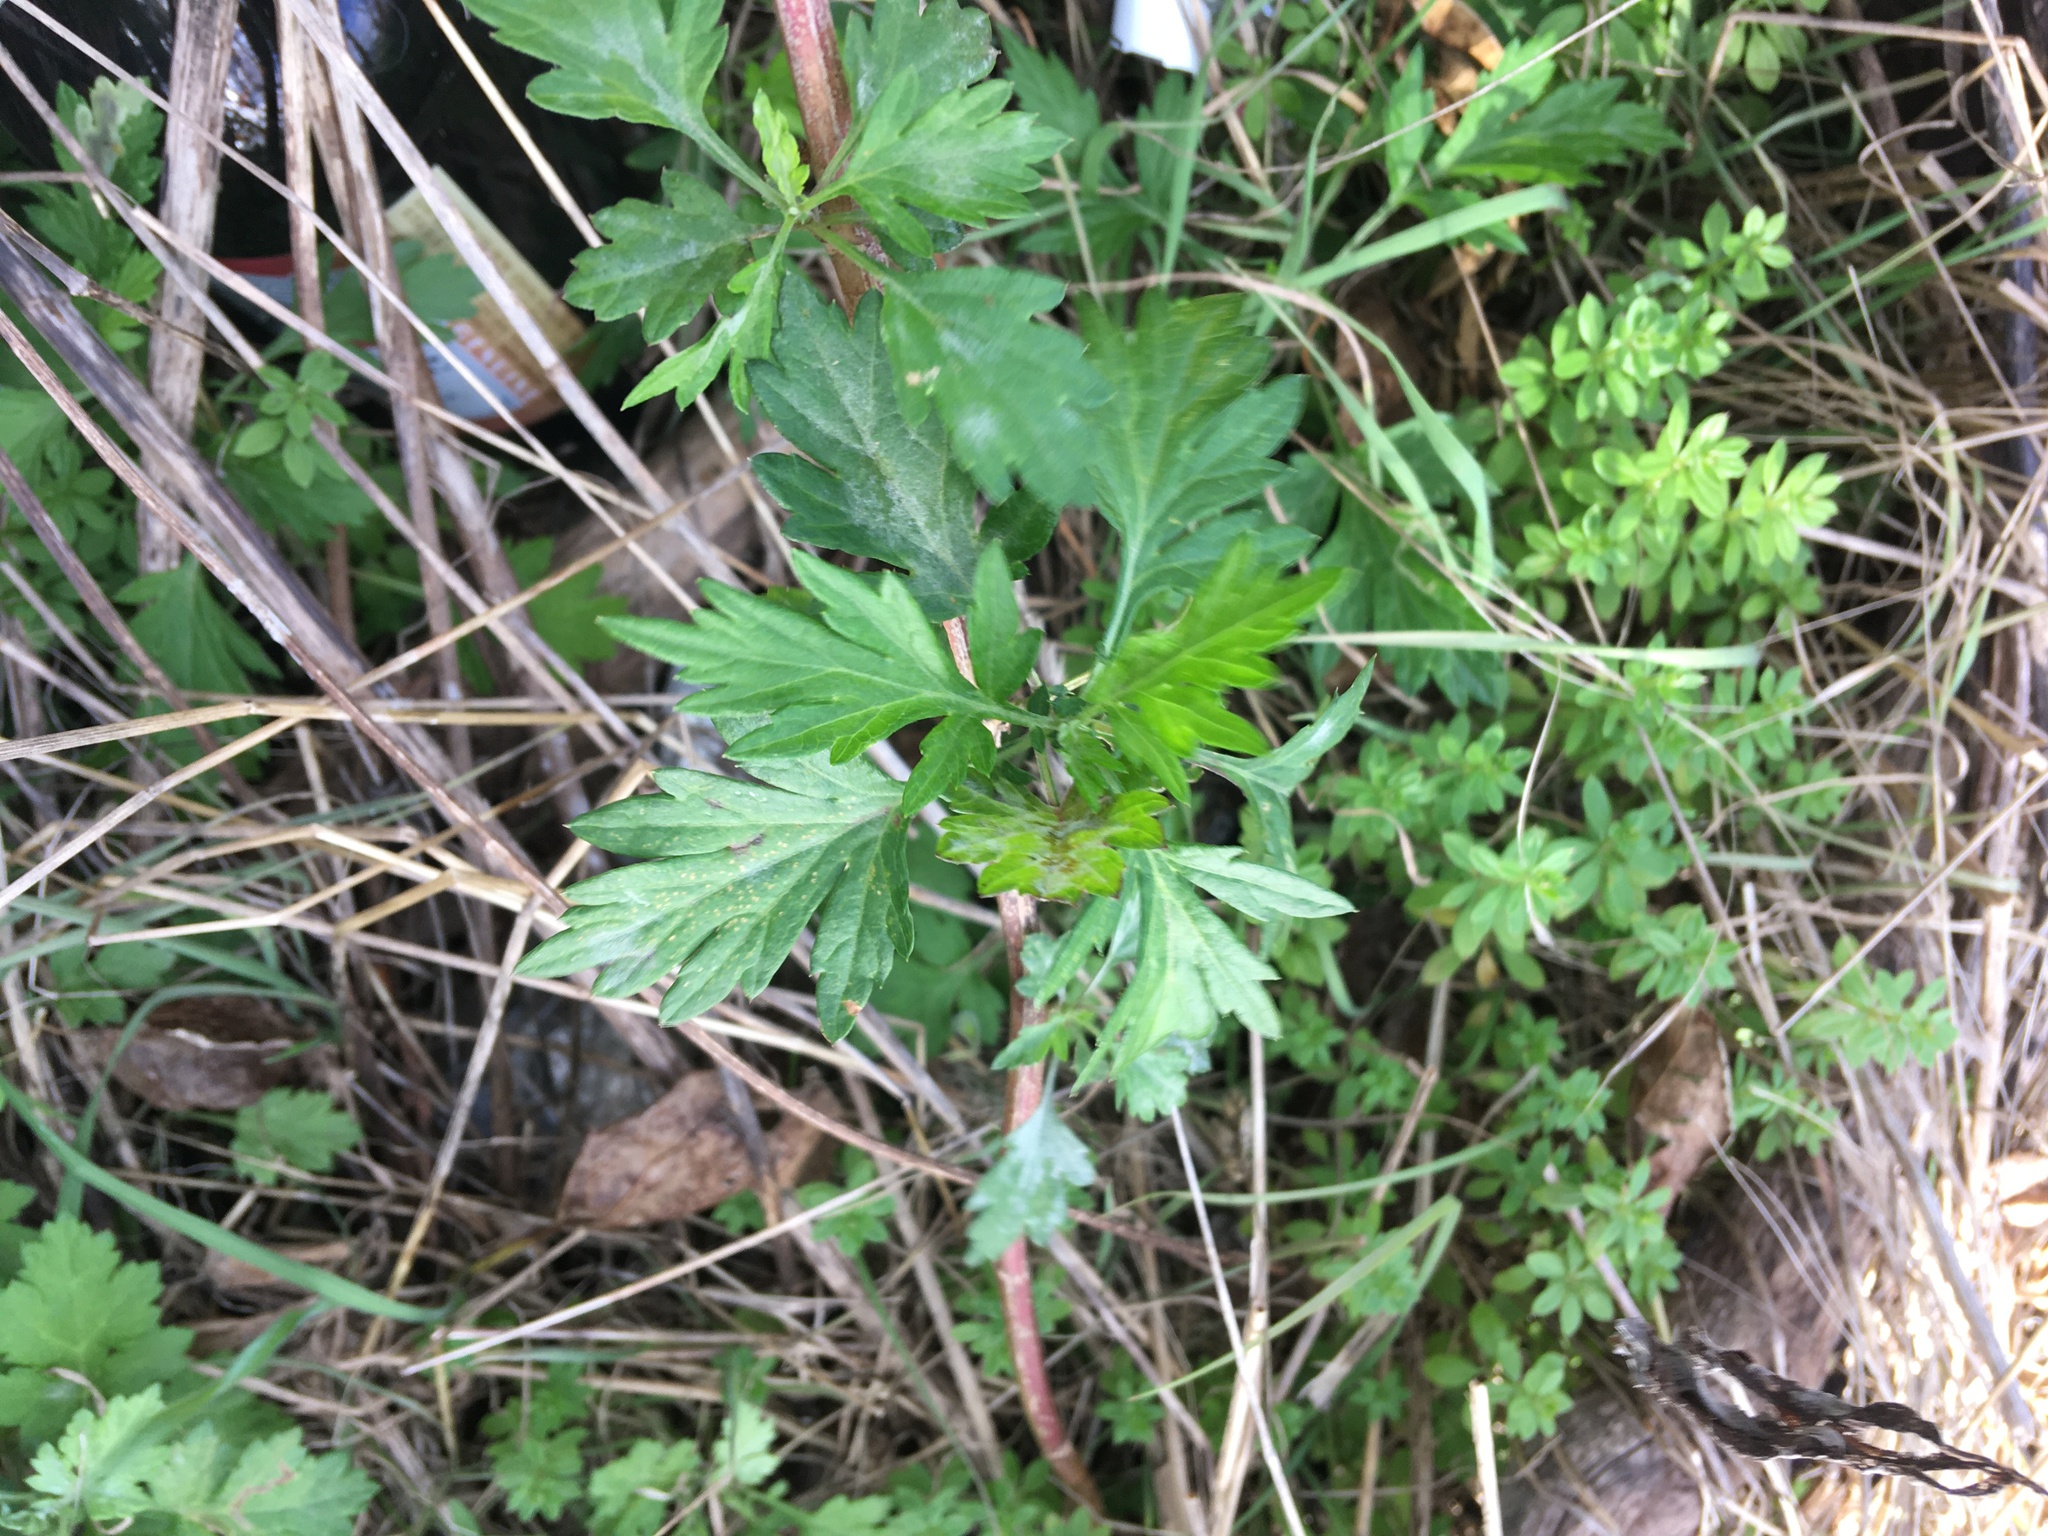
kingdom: Plantae
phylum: Tracheophyta
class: Magnoliopsida
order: Asterales
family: Asteraceae
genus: Artemisia
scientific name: Artemisia vulgaris
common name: Mugwort
